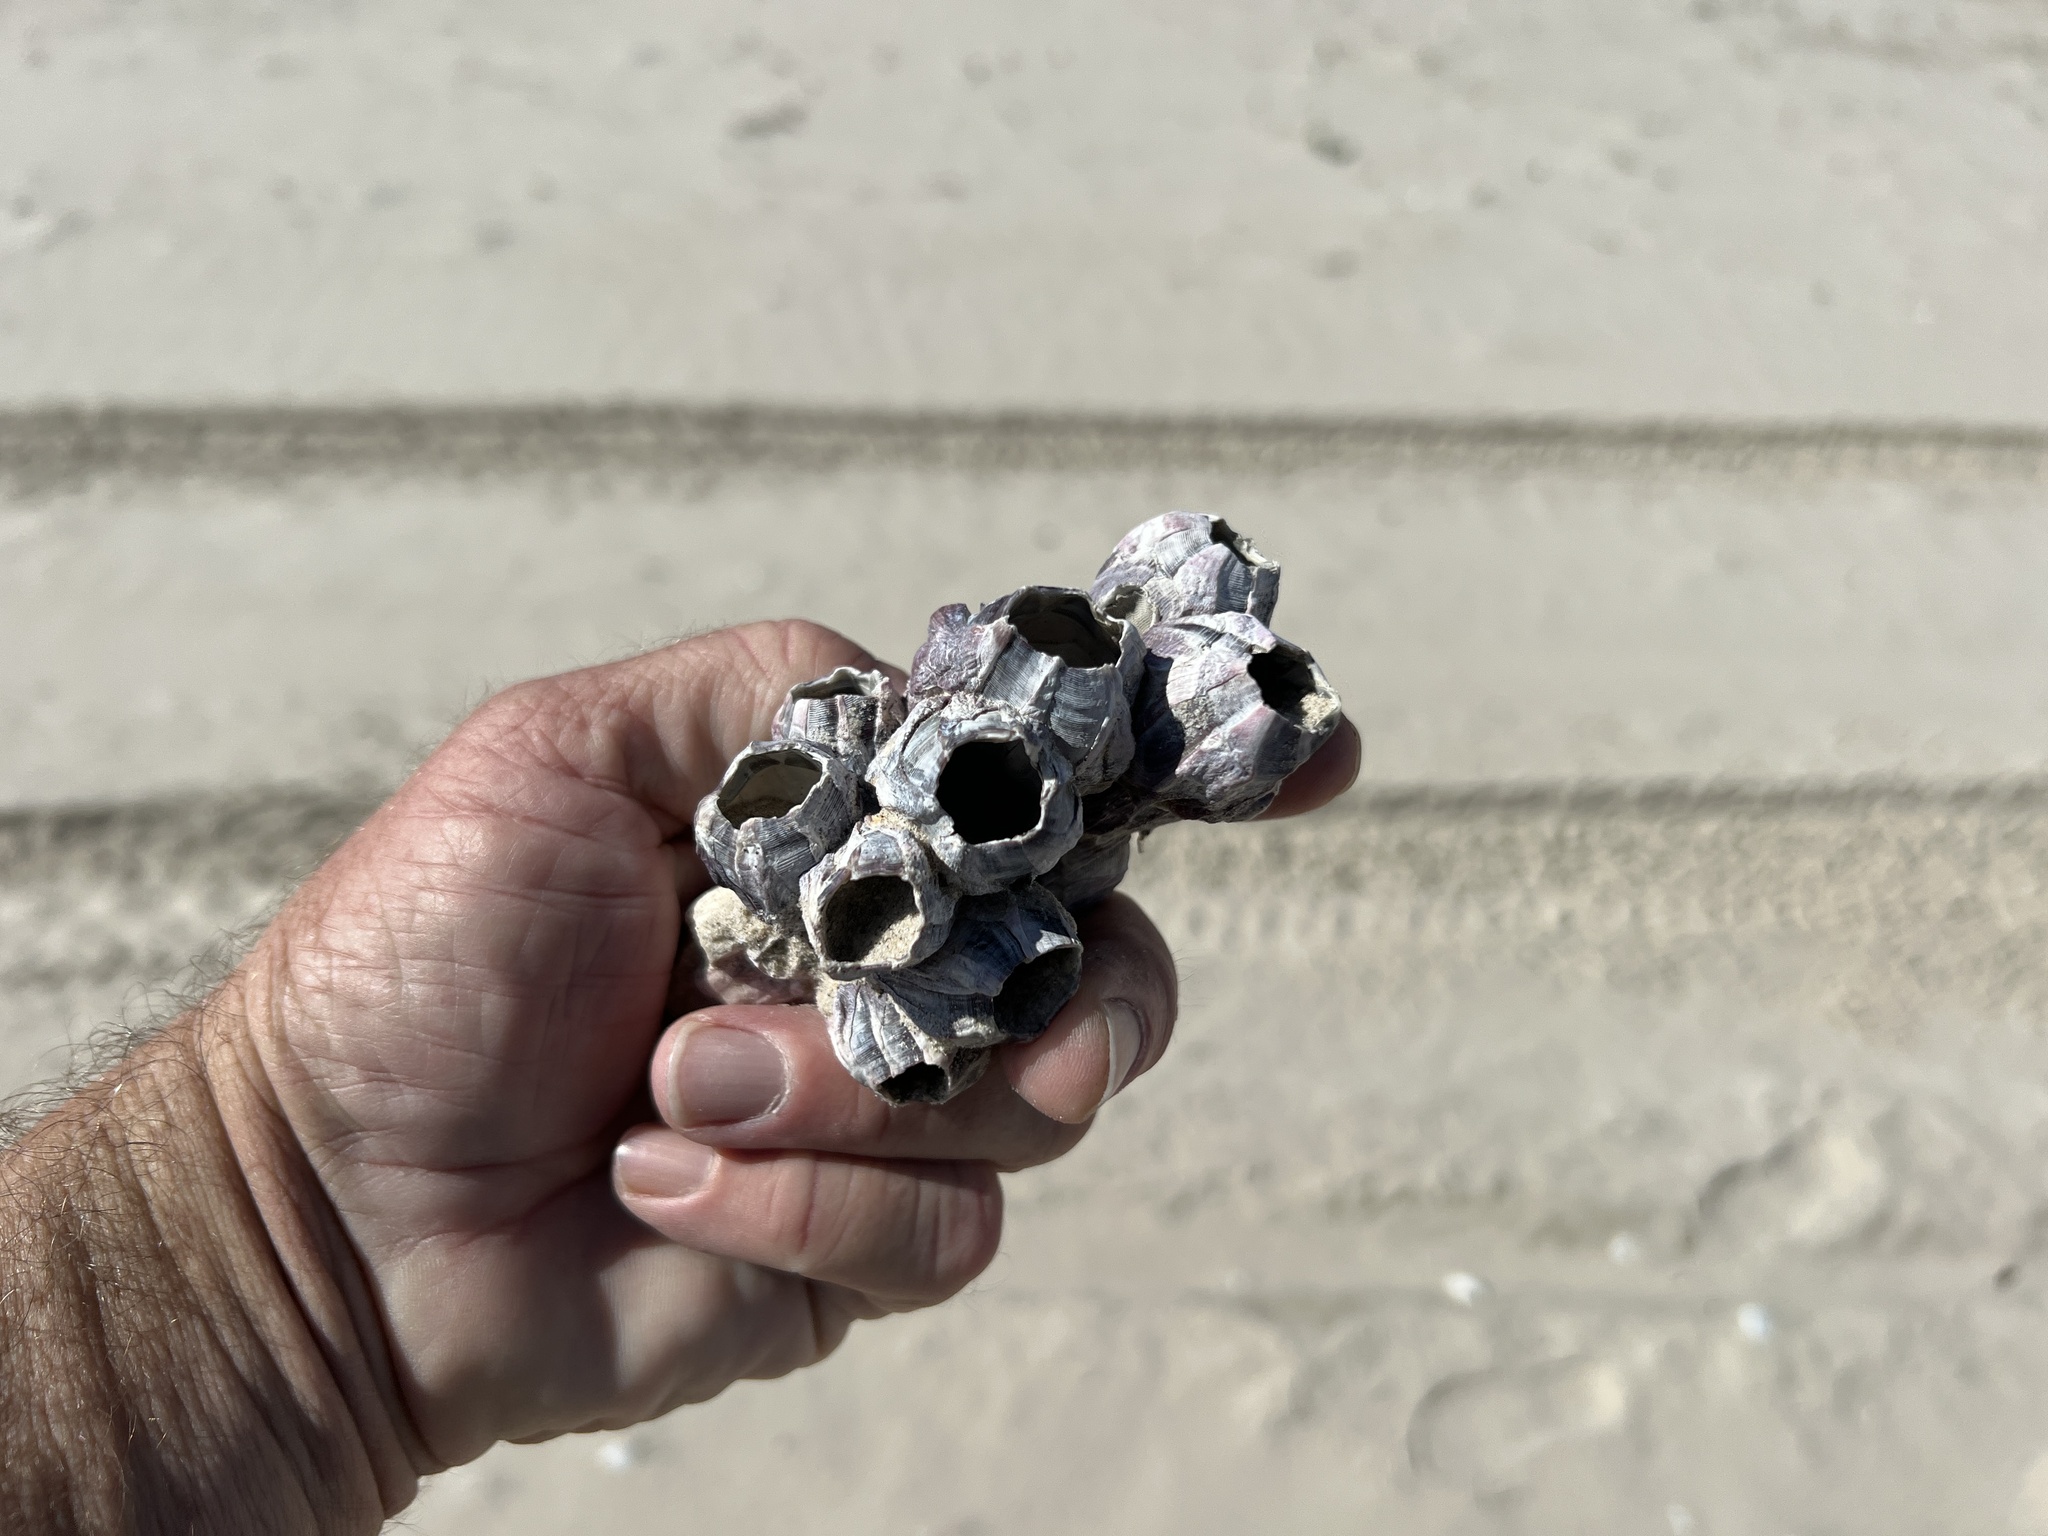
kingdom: Animalia
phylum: Arthropoda
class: Maxillopoda
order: Sessilia
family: Balanidae
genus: Balanus
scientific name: Balanus trigonus
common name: Triangle barnacle
